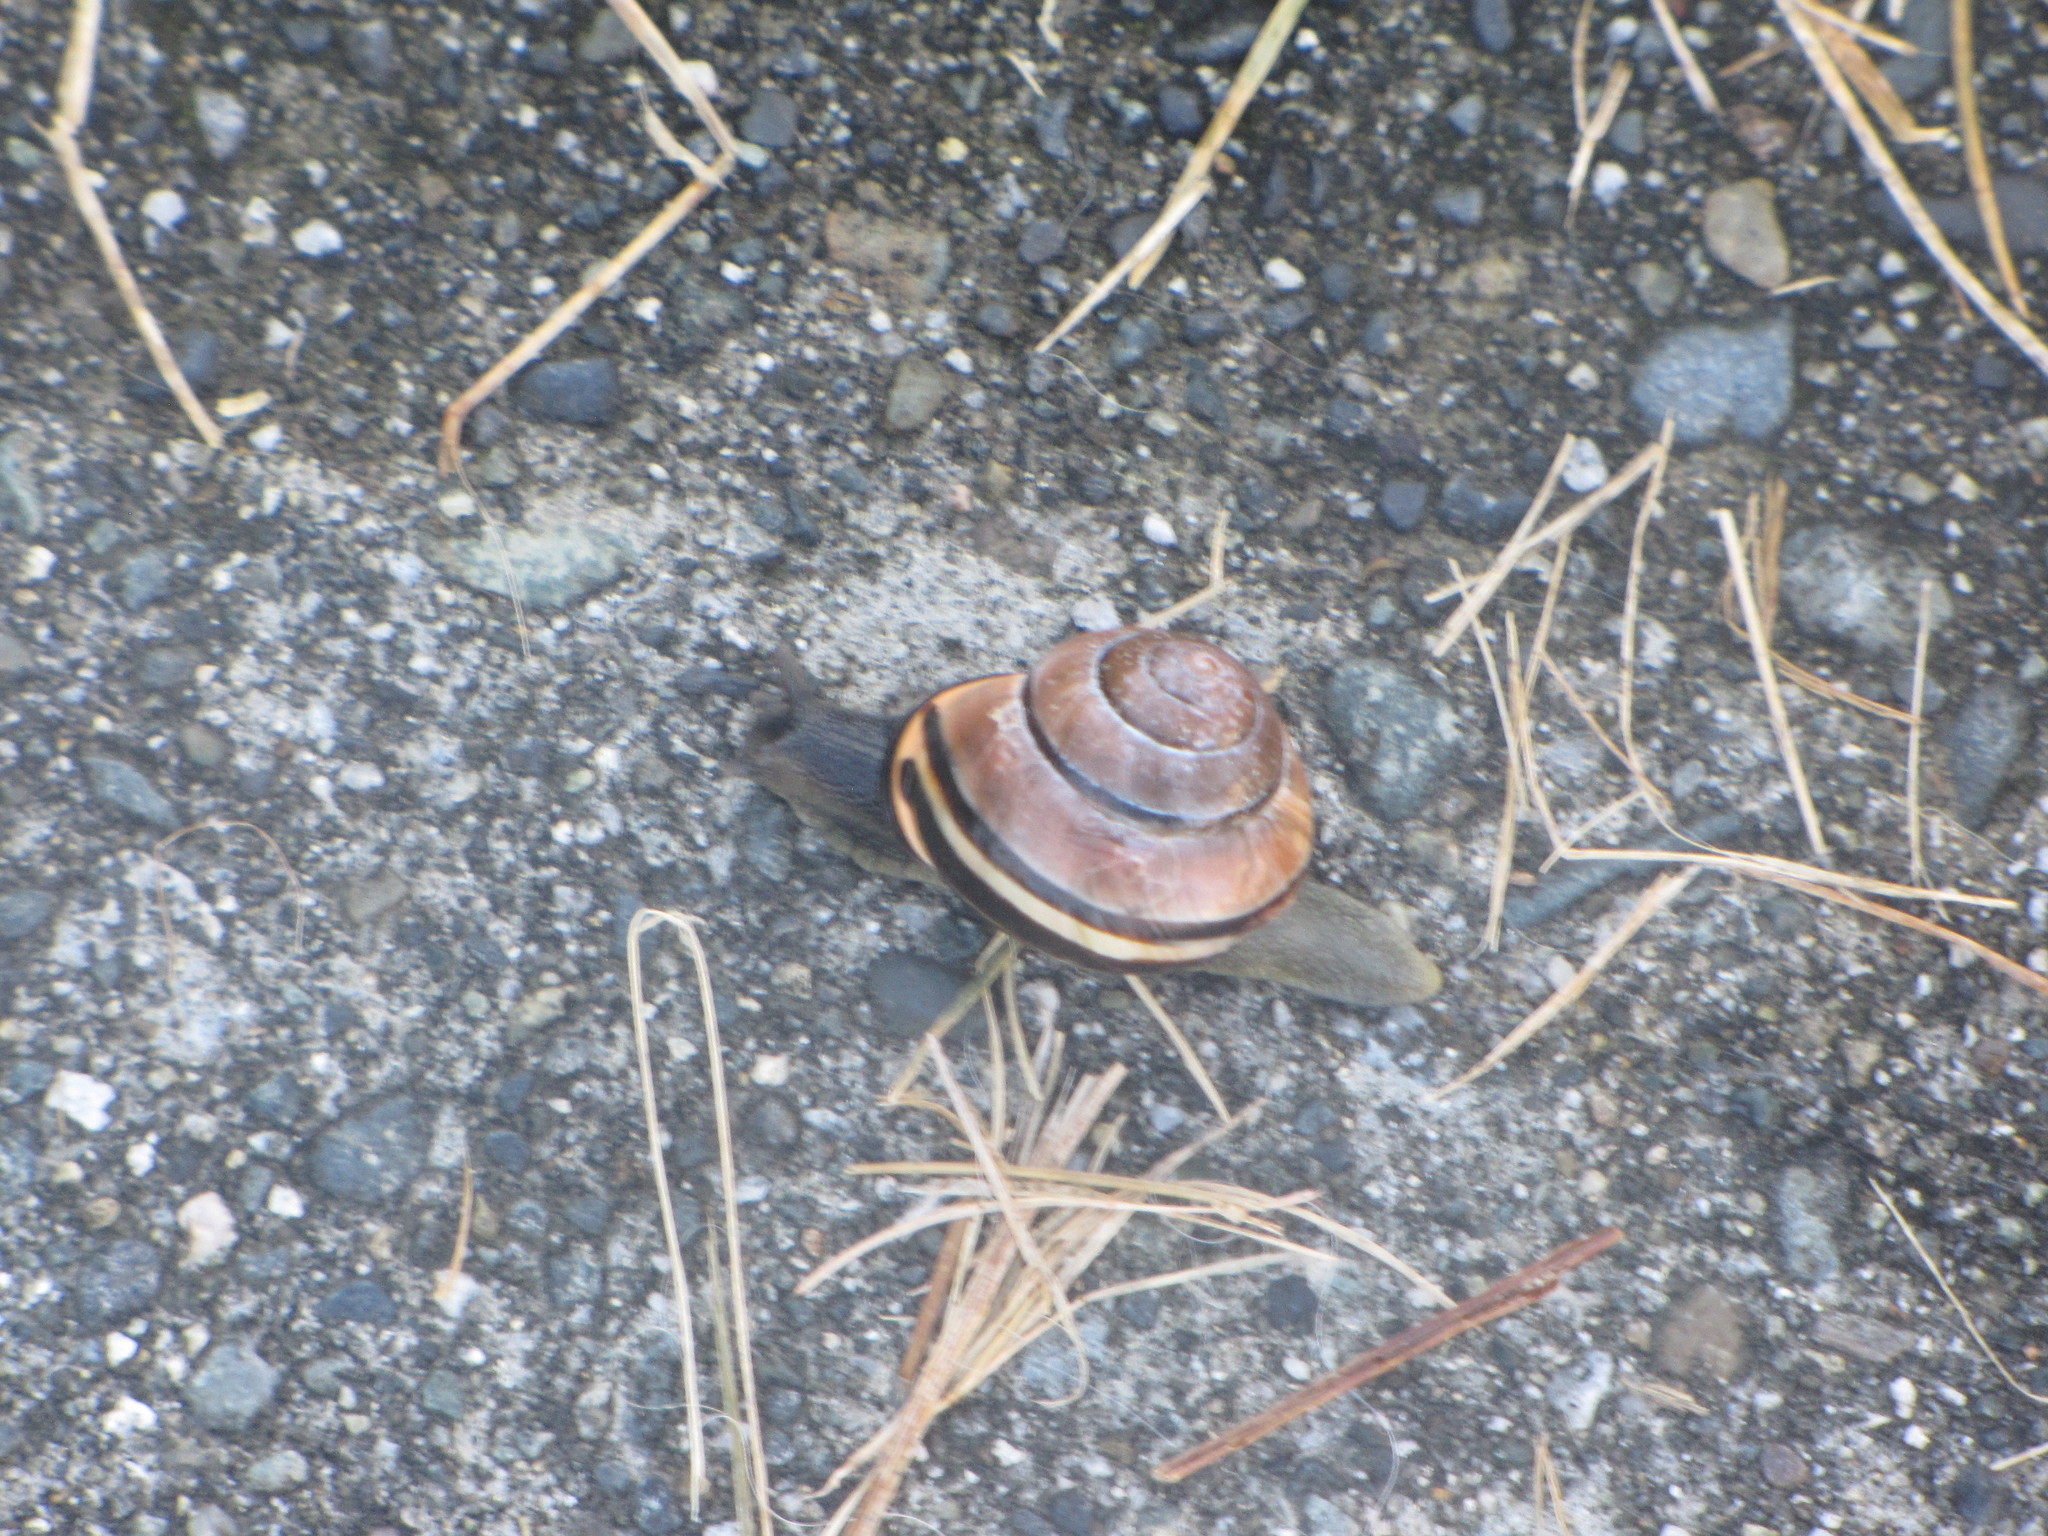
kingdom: Animalia
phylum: Mollusca
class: Gastropoda
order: Stylommatophora
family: Helicidae
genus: Cepaea
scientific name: Cepaea nemoralis
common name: Grovesnail
